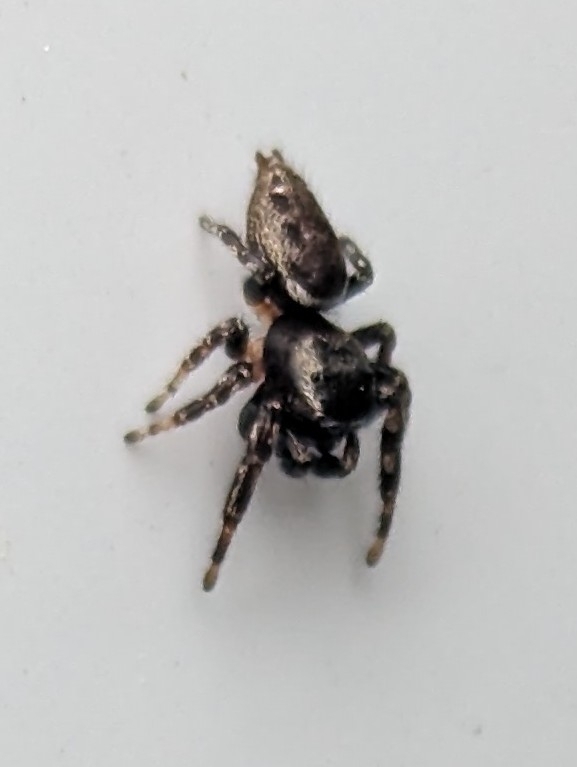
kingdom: Animalia
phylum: Arthropoda
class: Arachnida
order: Araneae
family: Salticidae
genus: Pelegrina
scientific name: Pelegrina aeneola
